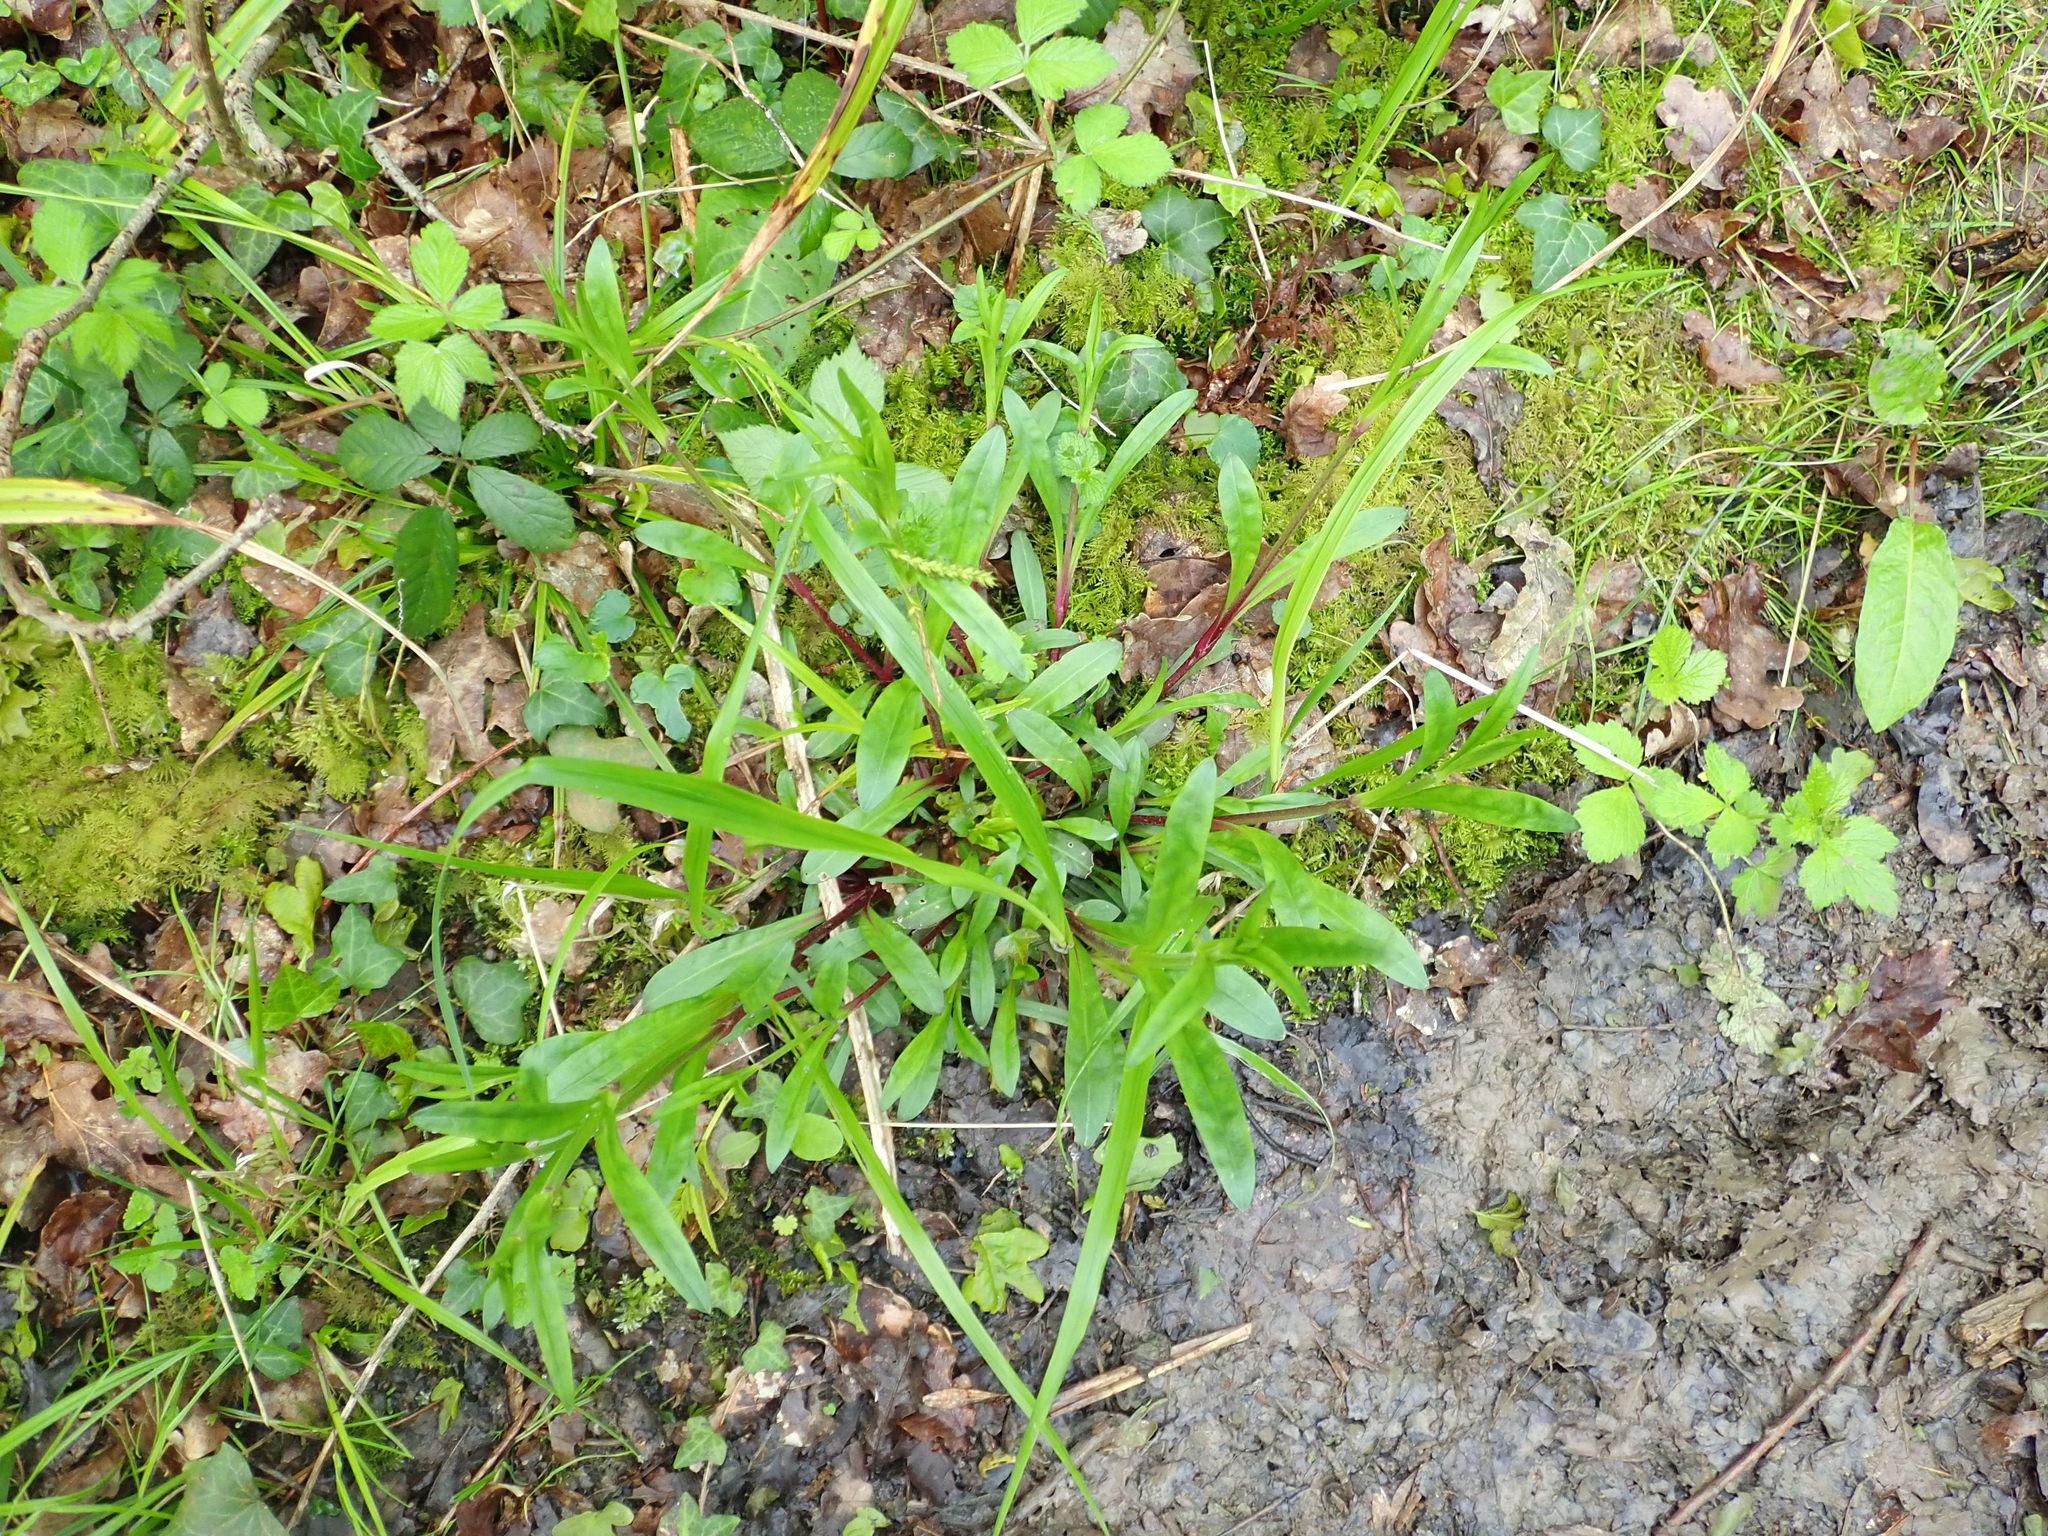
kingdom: Plantae
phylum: Tracheophyta
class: Magnoliopsida
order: Caryophyllales
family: Caryophyllaceae
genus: Silene
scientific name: Silene flos-cuculi
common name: Ragged-robin
